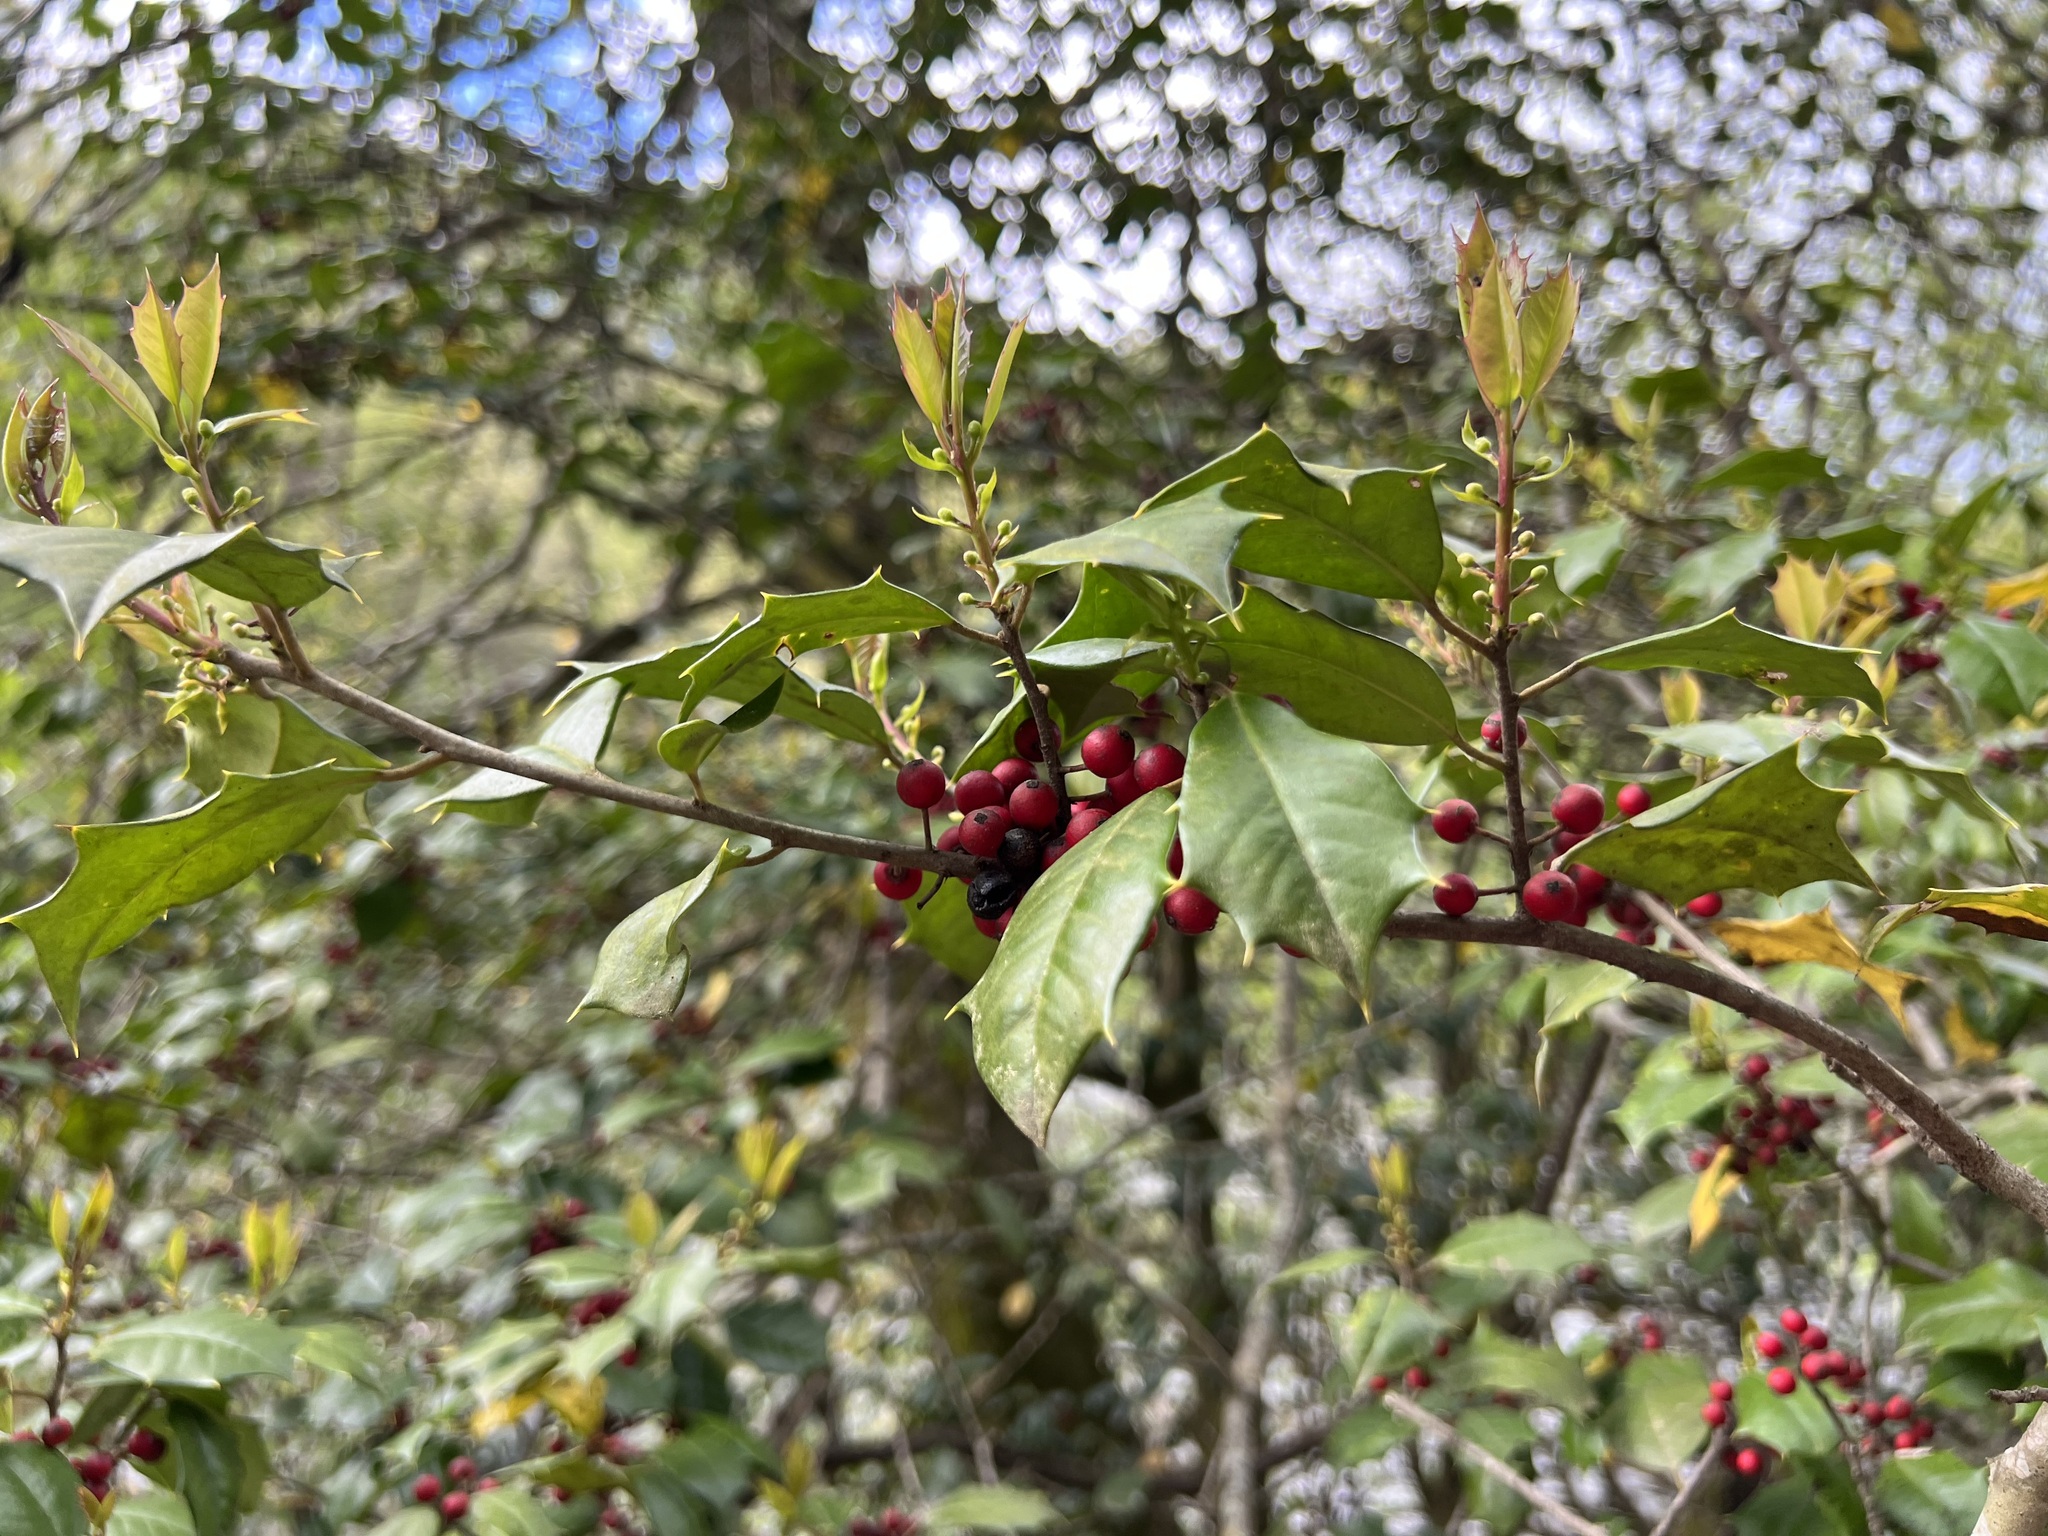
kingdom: Plantae
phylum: Tracheophyta
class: Magnoliopsida
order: Aquifoliales
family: Aquifoliaceae
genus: Ilex
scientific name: Ilex opaca
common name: American holly
